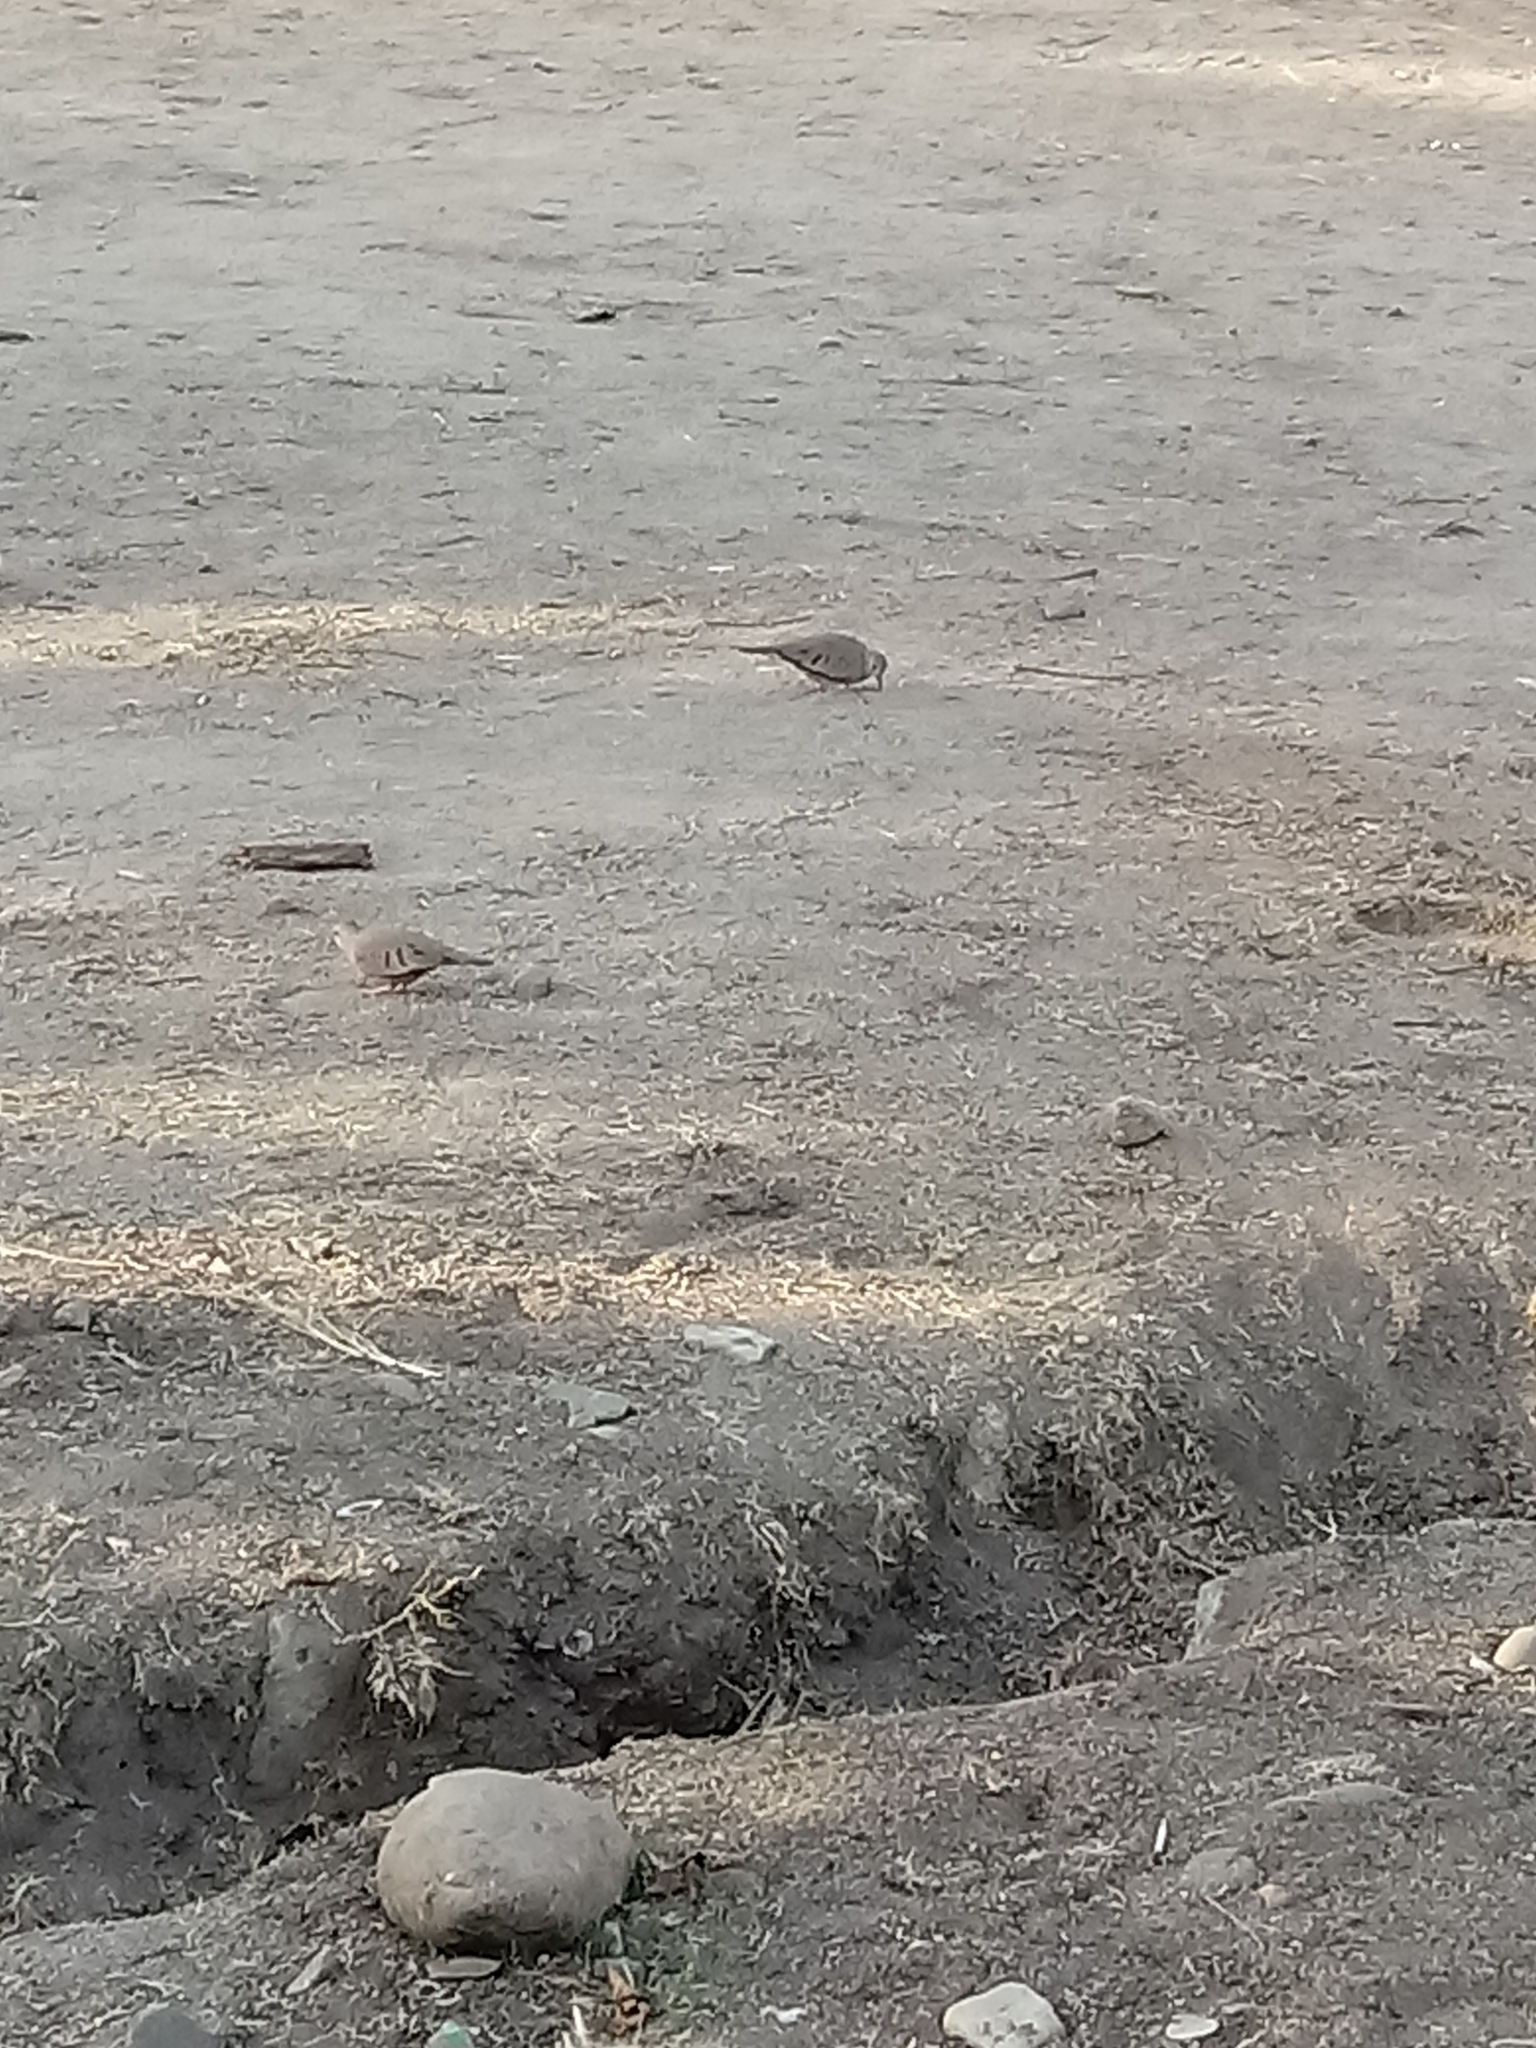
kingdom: Animalia
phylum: Chordata
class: Aves
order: Columbiformes
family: Columbidae
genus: Zenaida
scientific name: Zenaida macroura
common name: Mourning dove
